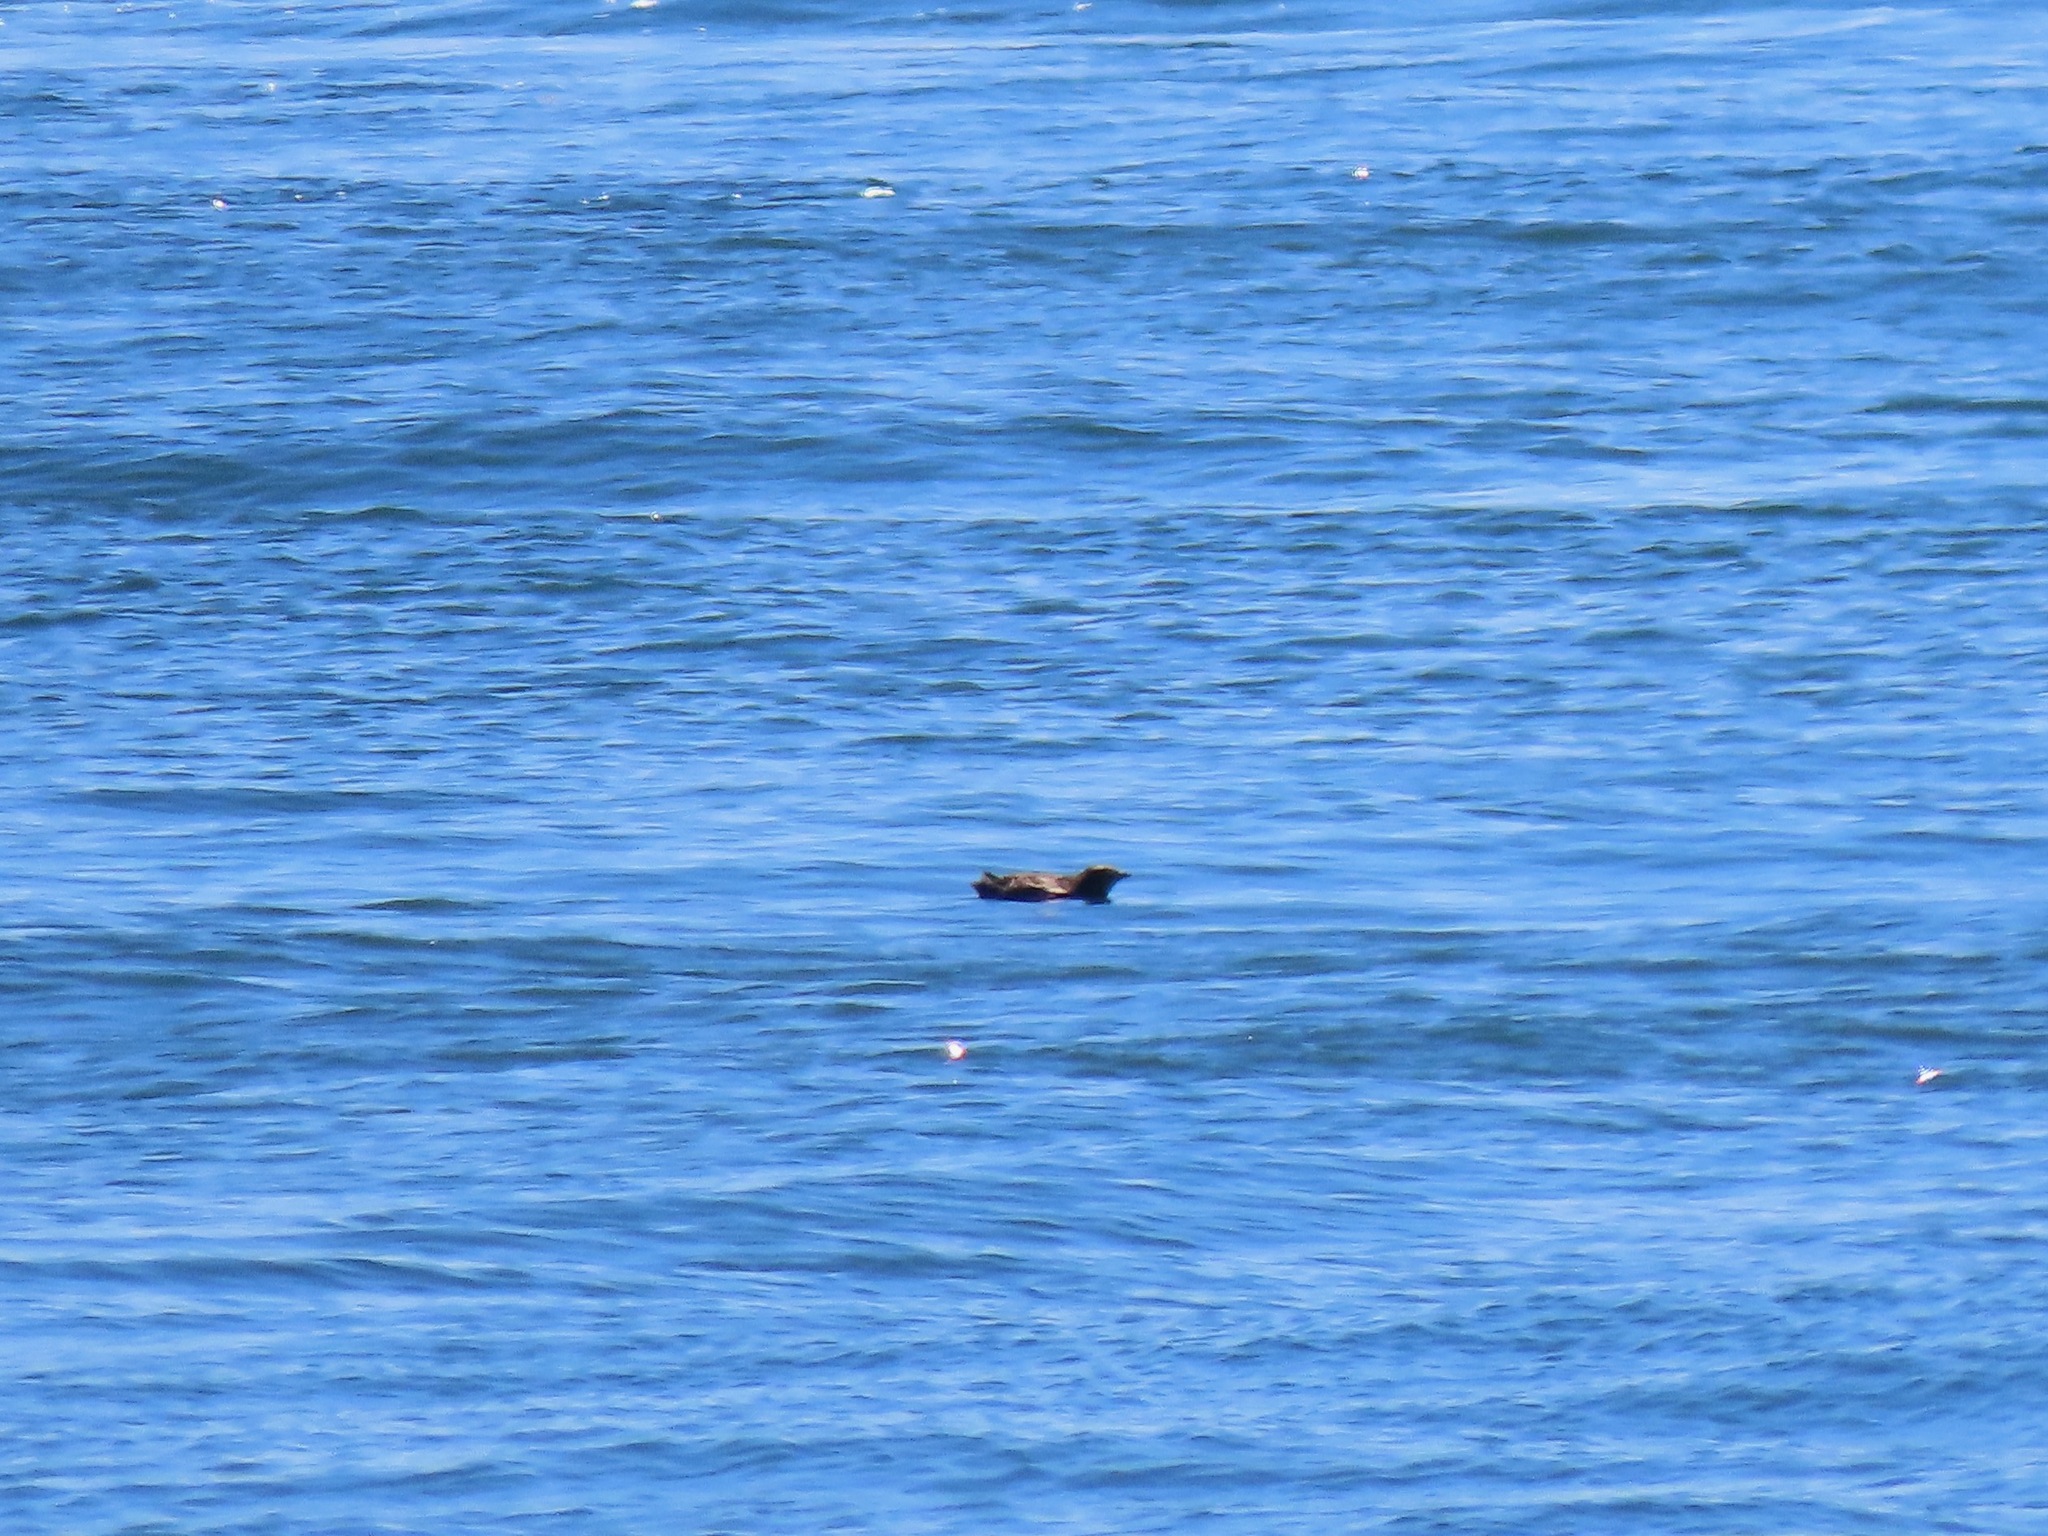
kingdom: Animalia
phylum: Chordata
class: Aves
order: Charadriiformes
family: Alcidae
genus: Brachyramphus
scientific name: Brachyramphus marmoratus
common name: Marbled murrelet
